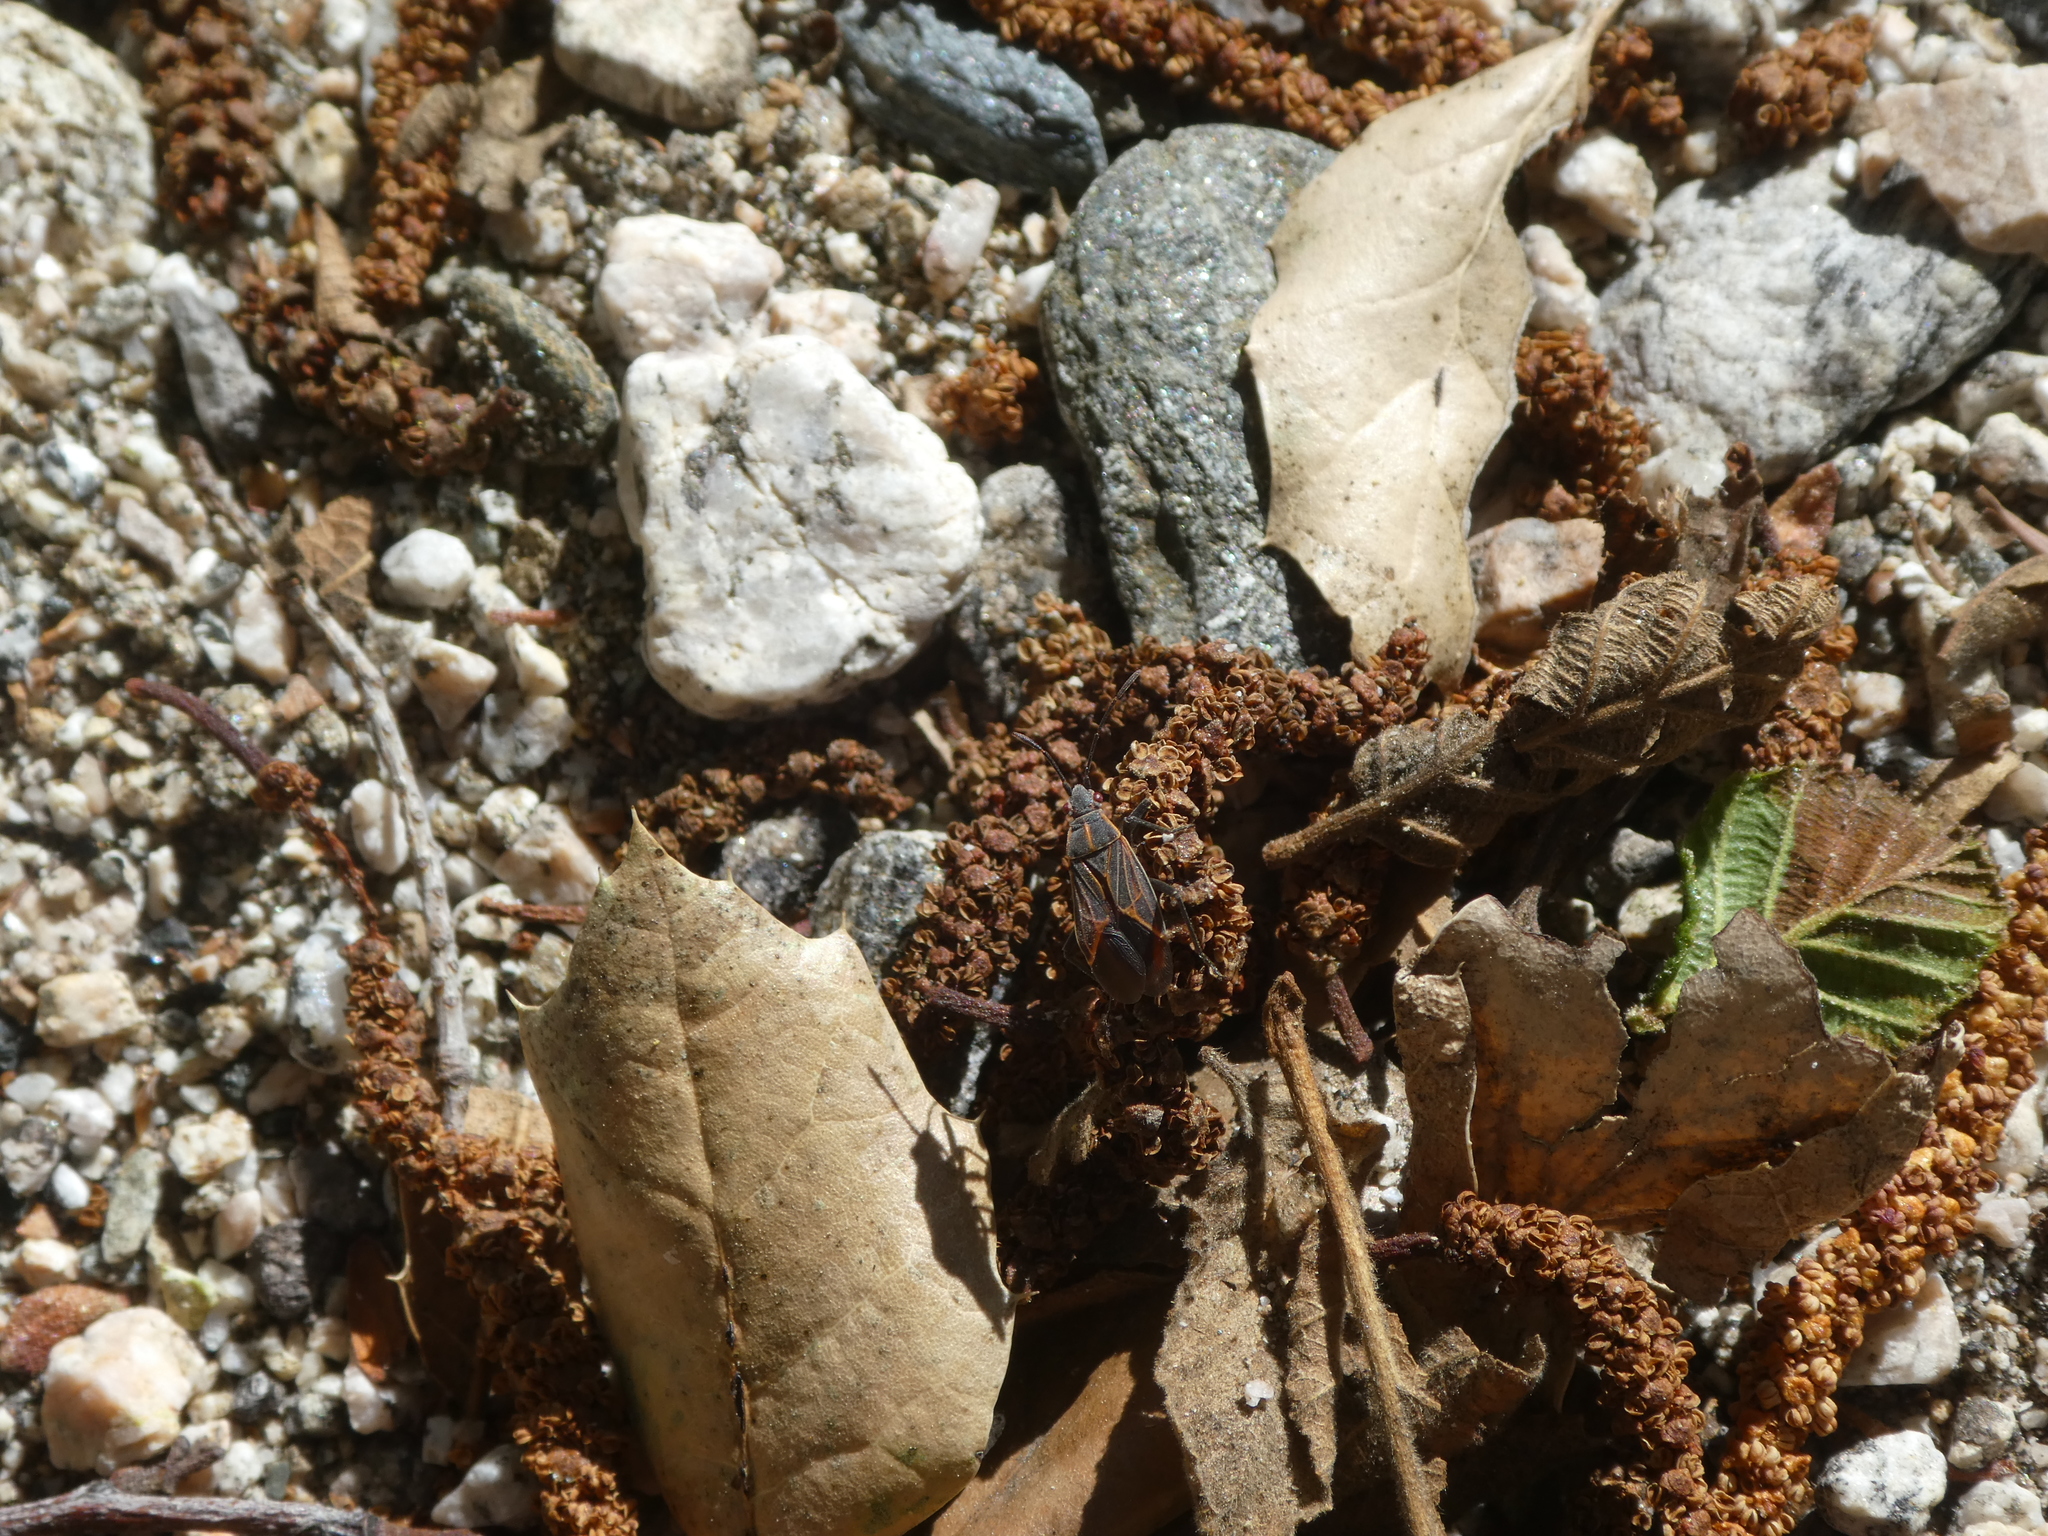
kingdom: Animalia
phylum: Arthropoda
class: Insecta
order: Hemiptera
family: Rhopalidae
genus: Boisea
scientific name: Boisea rubrolineata
